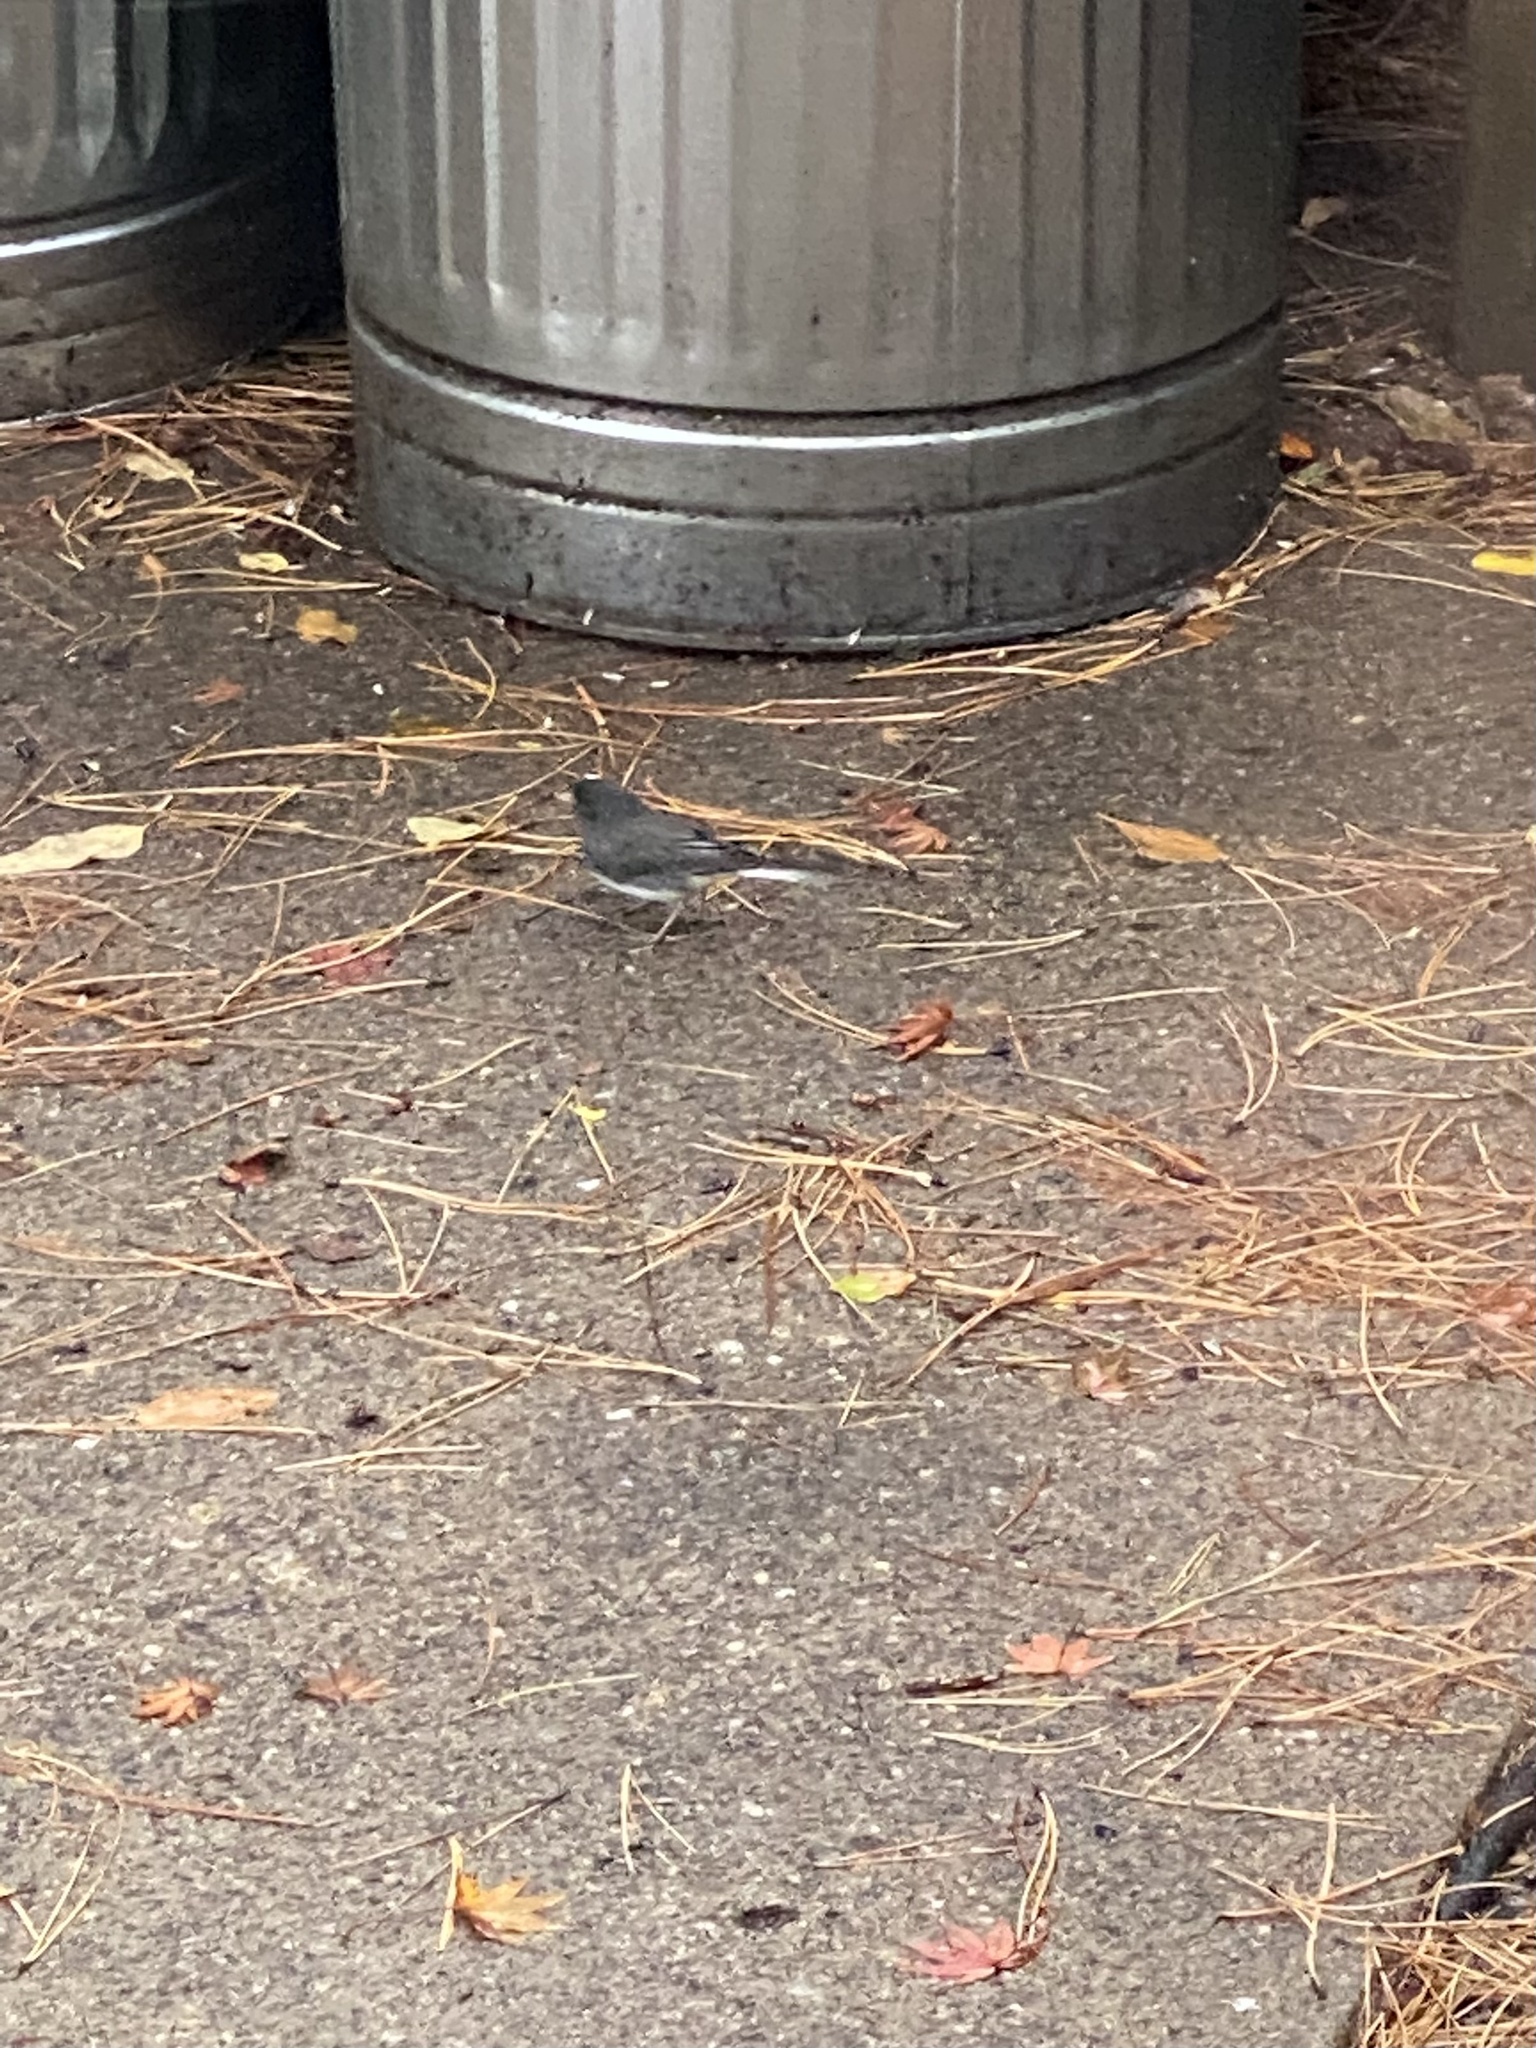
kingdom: Animalia
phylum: Chordata
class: Aves
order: Passeriformes
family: Passerellidae
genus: Junco
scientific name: Junco hyemalis
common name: Dark-eyed junco
